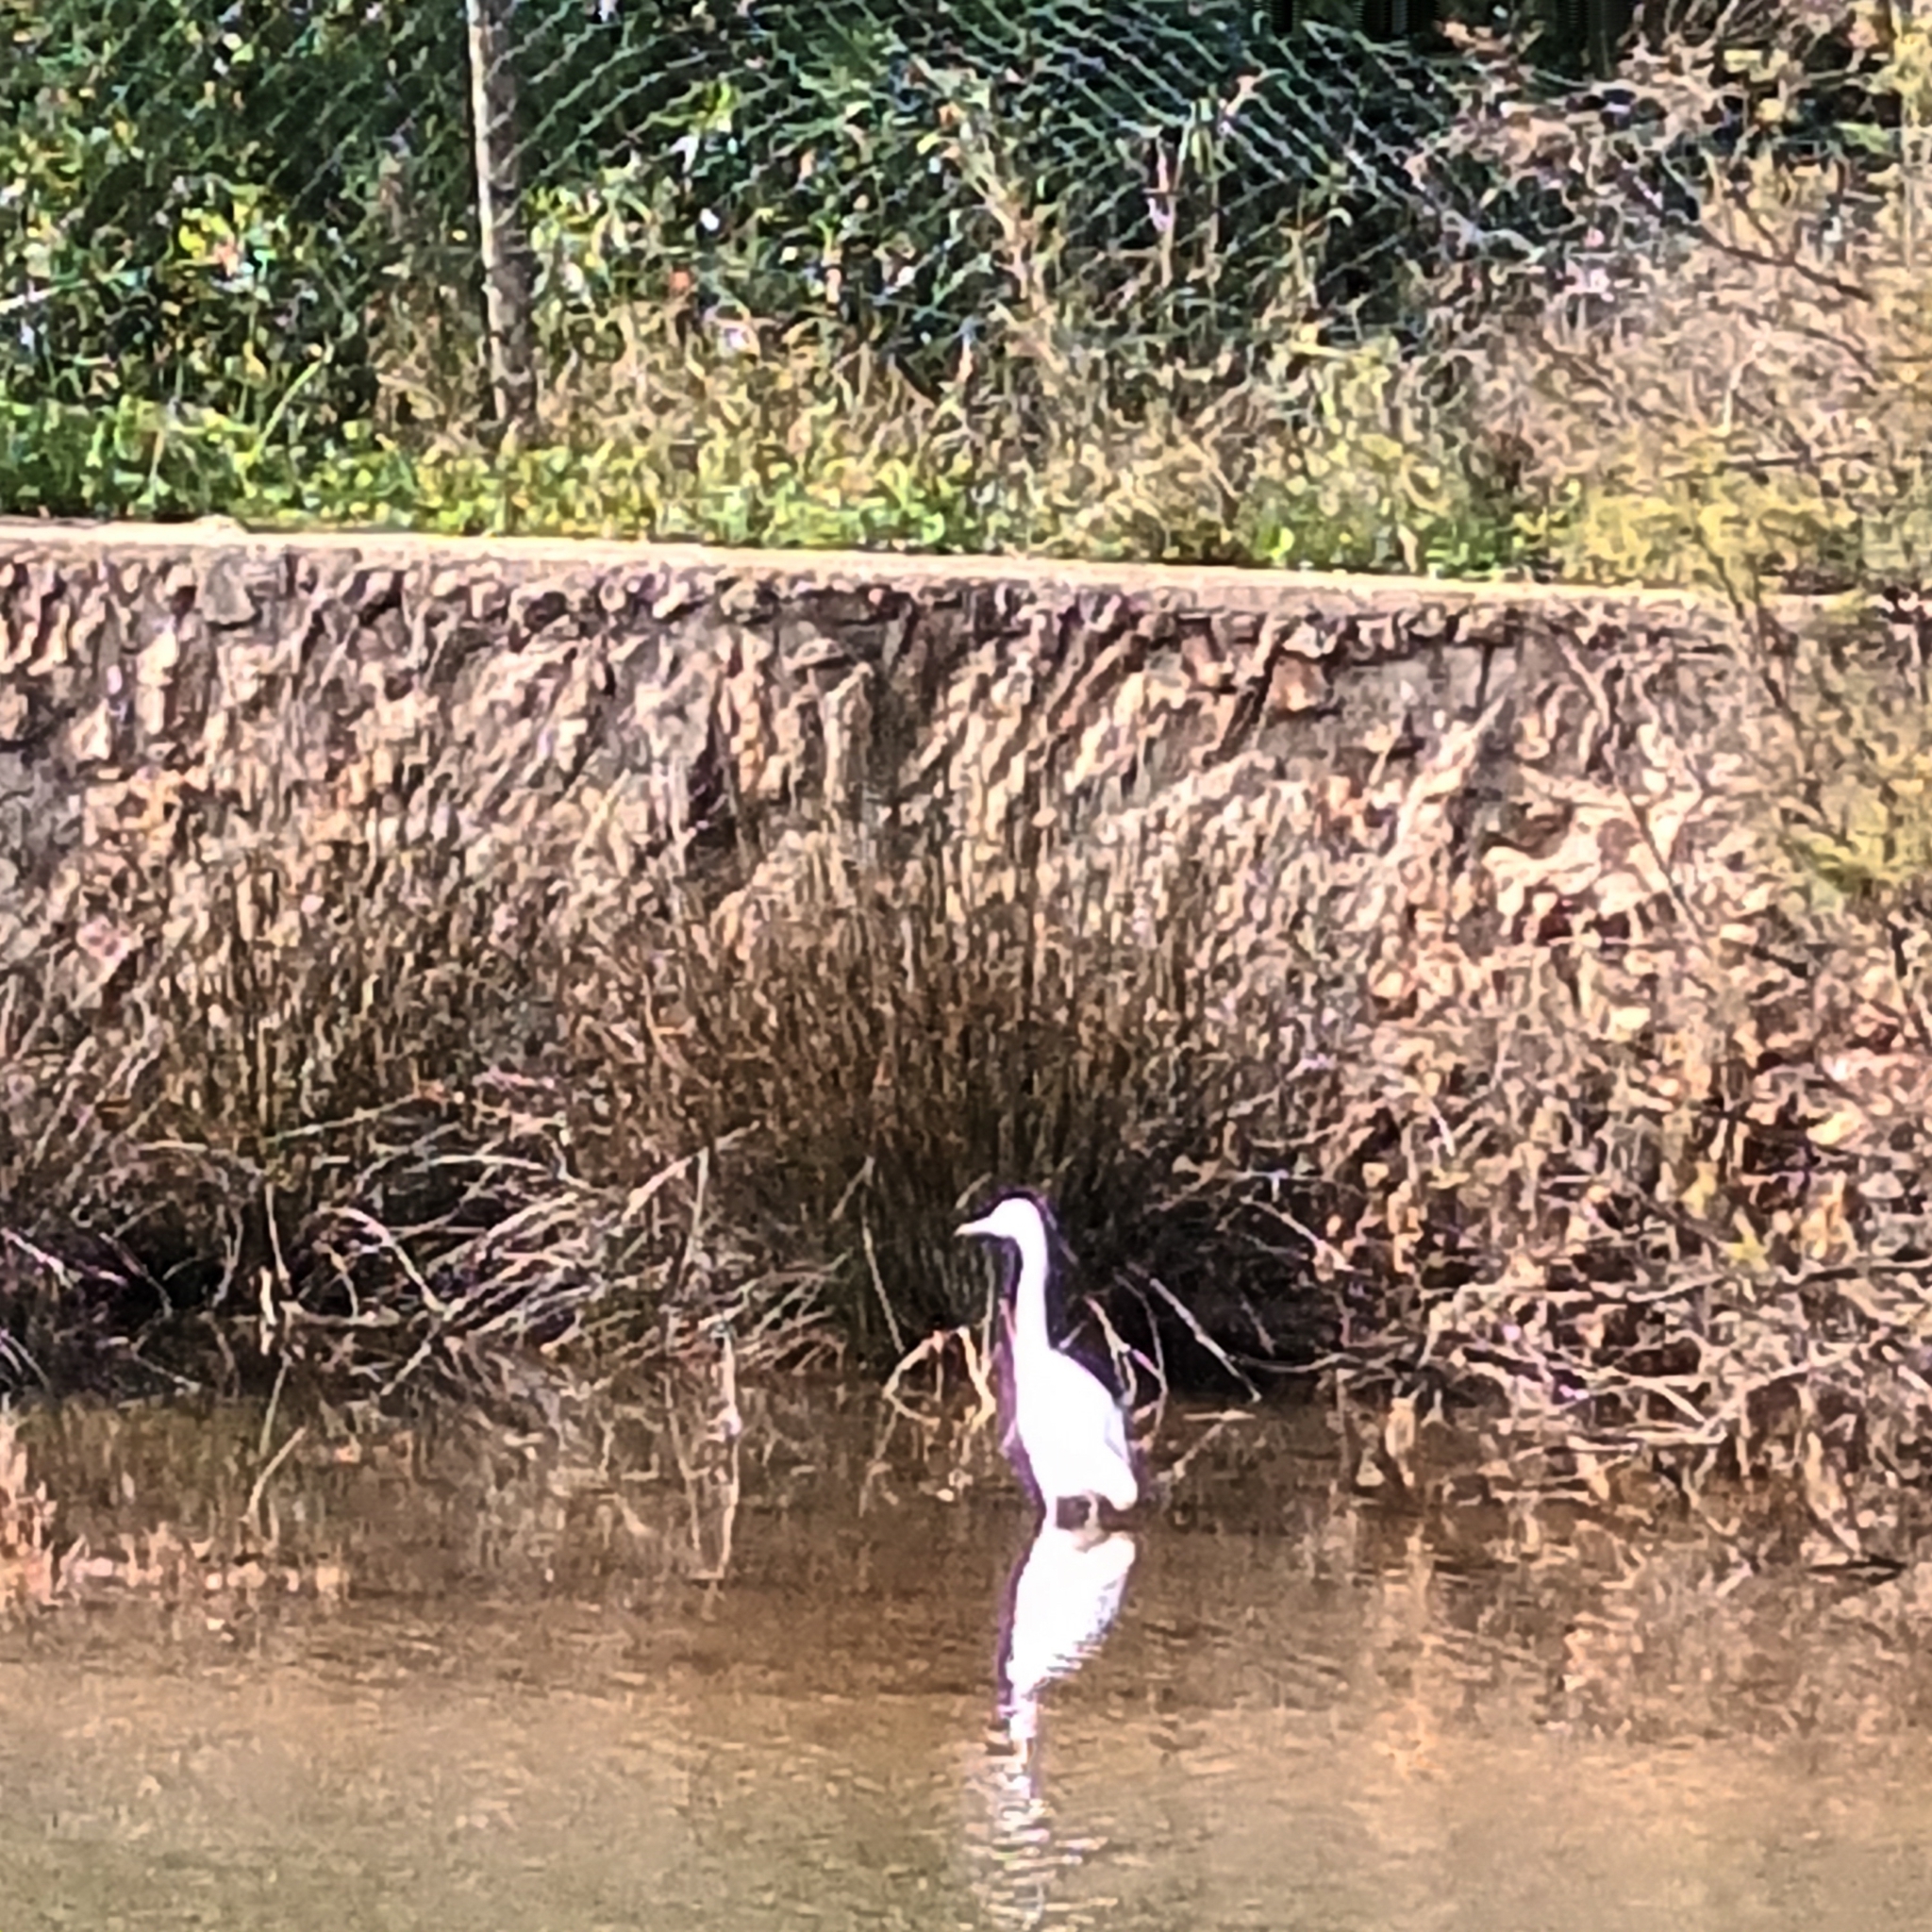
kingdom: Animalia
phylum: Chordata
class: Aves
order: Pelecaniformes
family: Ardeidae
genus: Egretta
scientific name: Egretta garzetta
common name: Little egret
